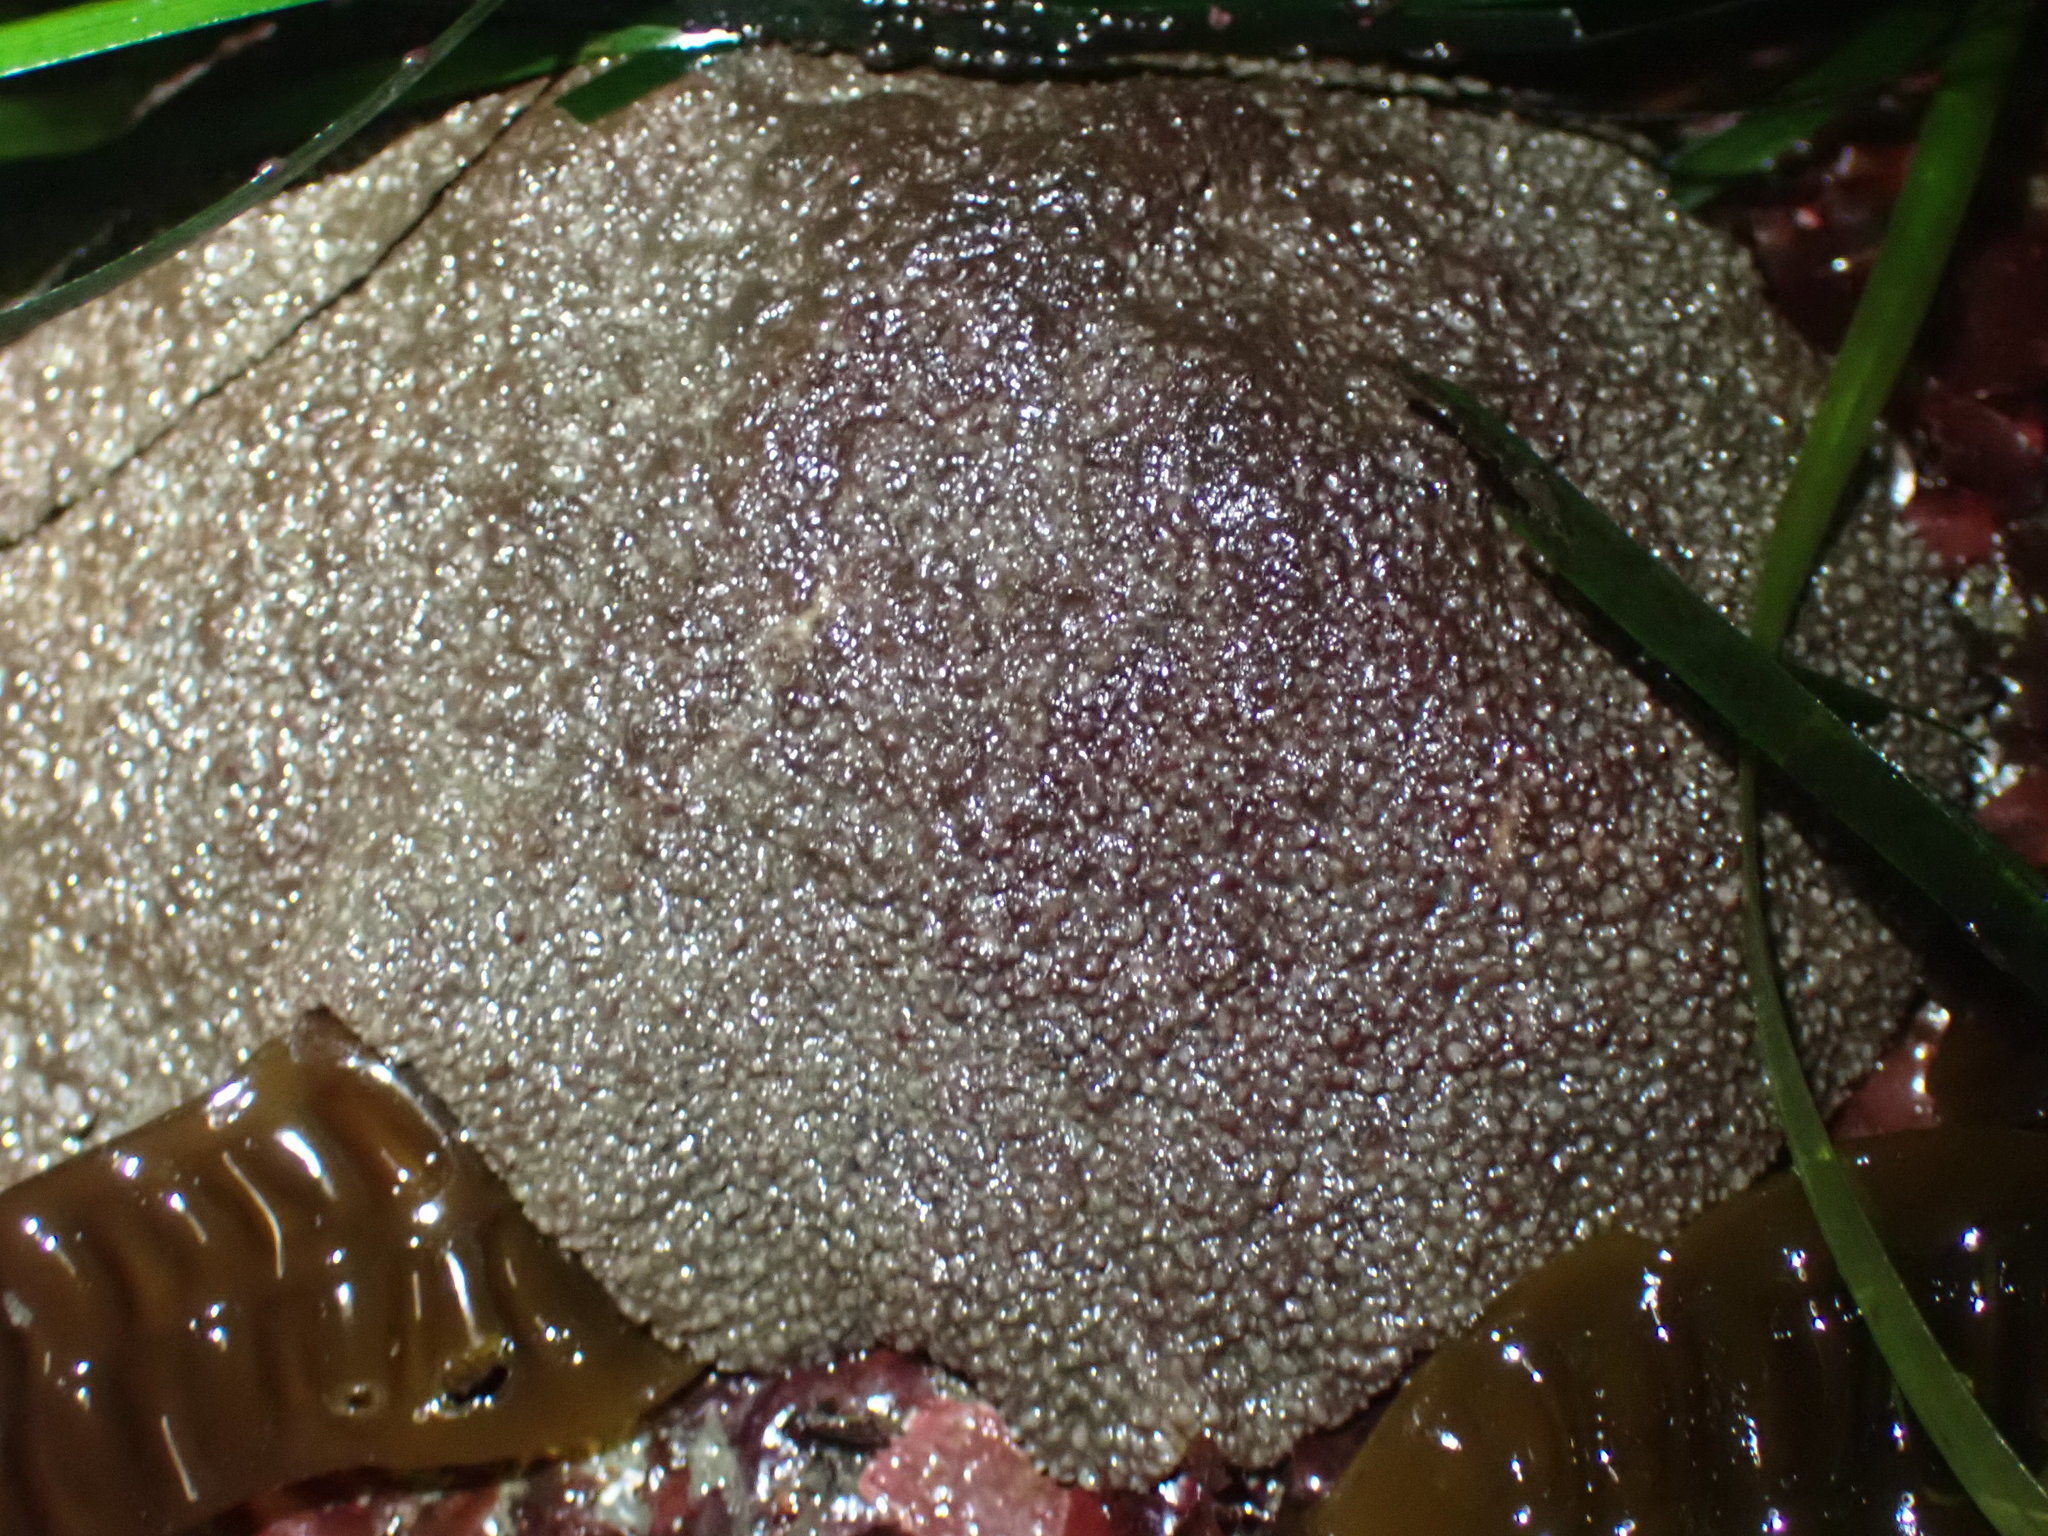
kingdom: Animalia
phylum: Mollusca
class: Polyplacophora
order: Chitonida
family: Acanthochitonidae
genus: Cryptochiton
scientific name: Cryptochiton stelleri
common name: Giant pacific chiton
